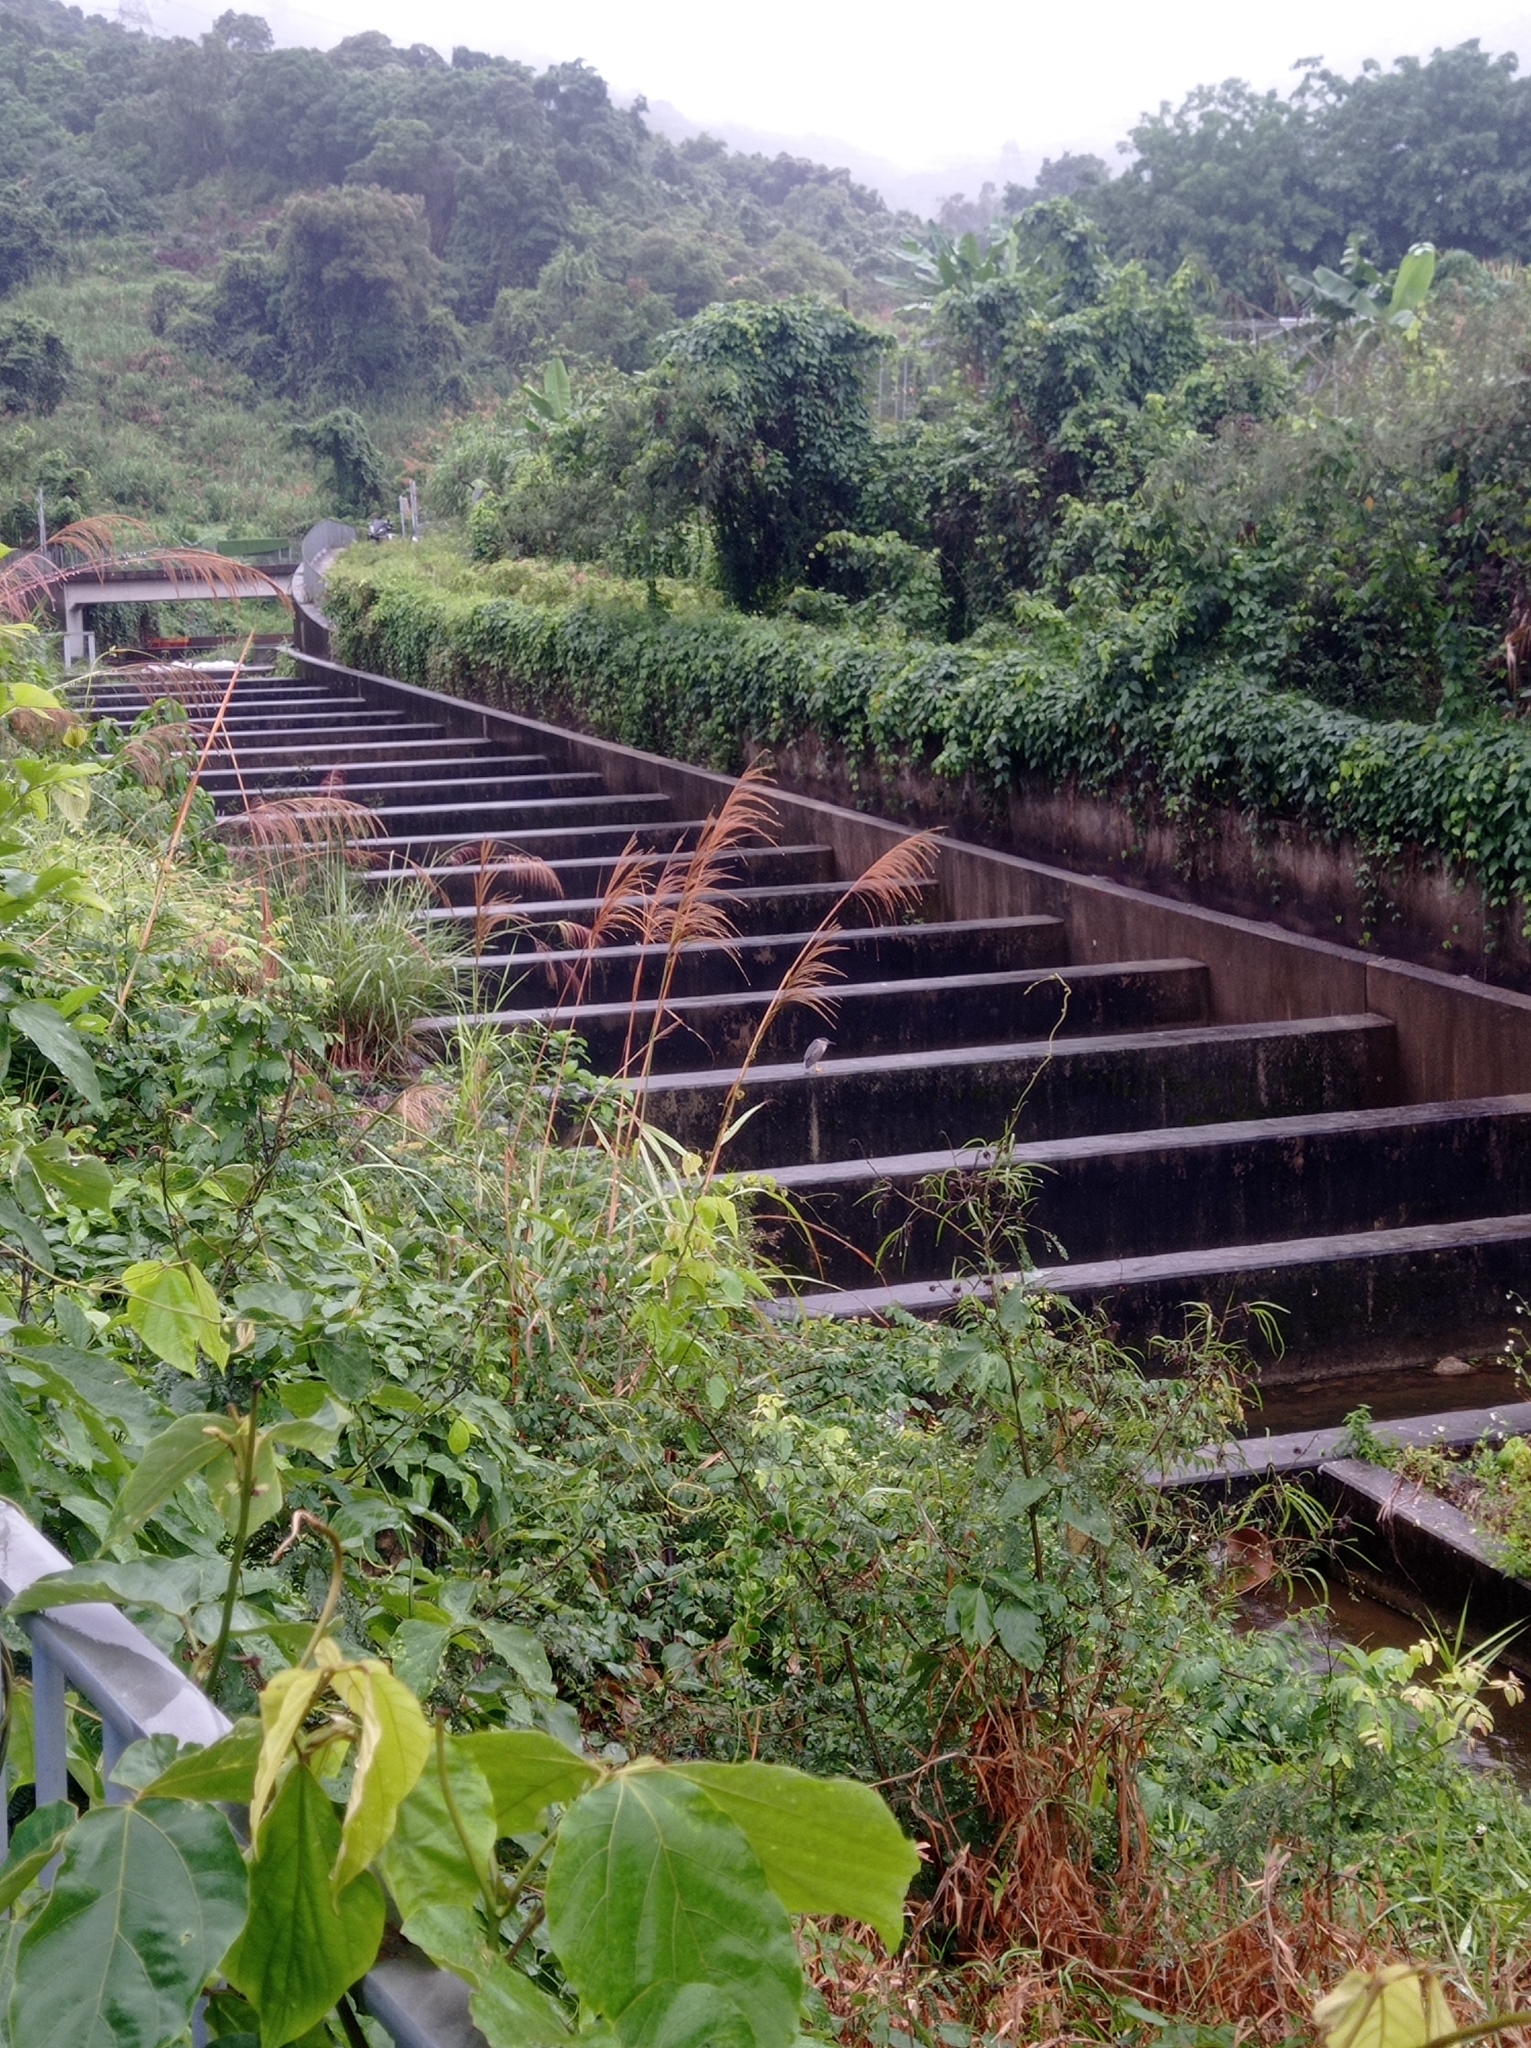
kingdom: Animalia
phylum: Chordata
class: Aves
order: Pelecaniformes
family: Ardeidae
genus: Nycticorax
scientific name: Nycticorax nycticorax
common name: Black-crowned night heron
